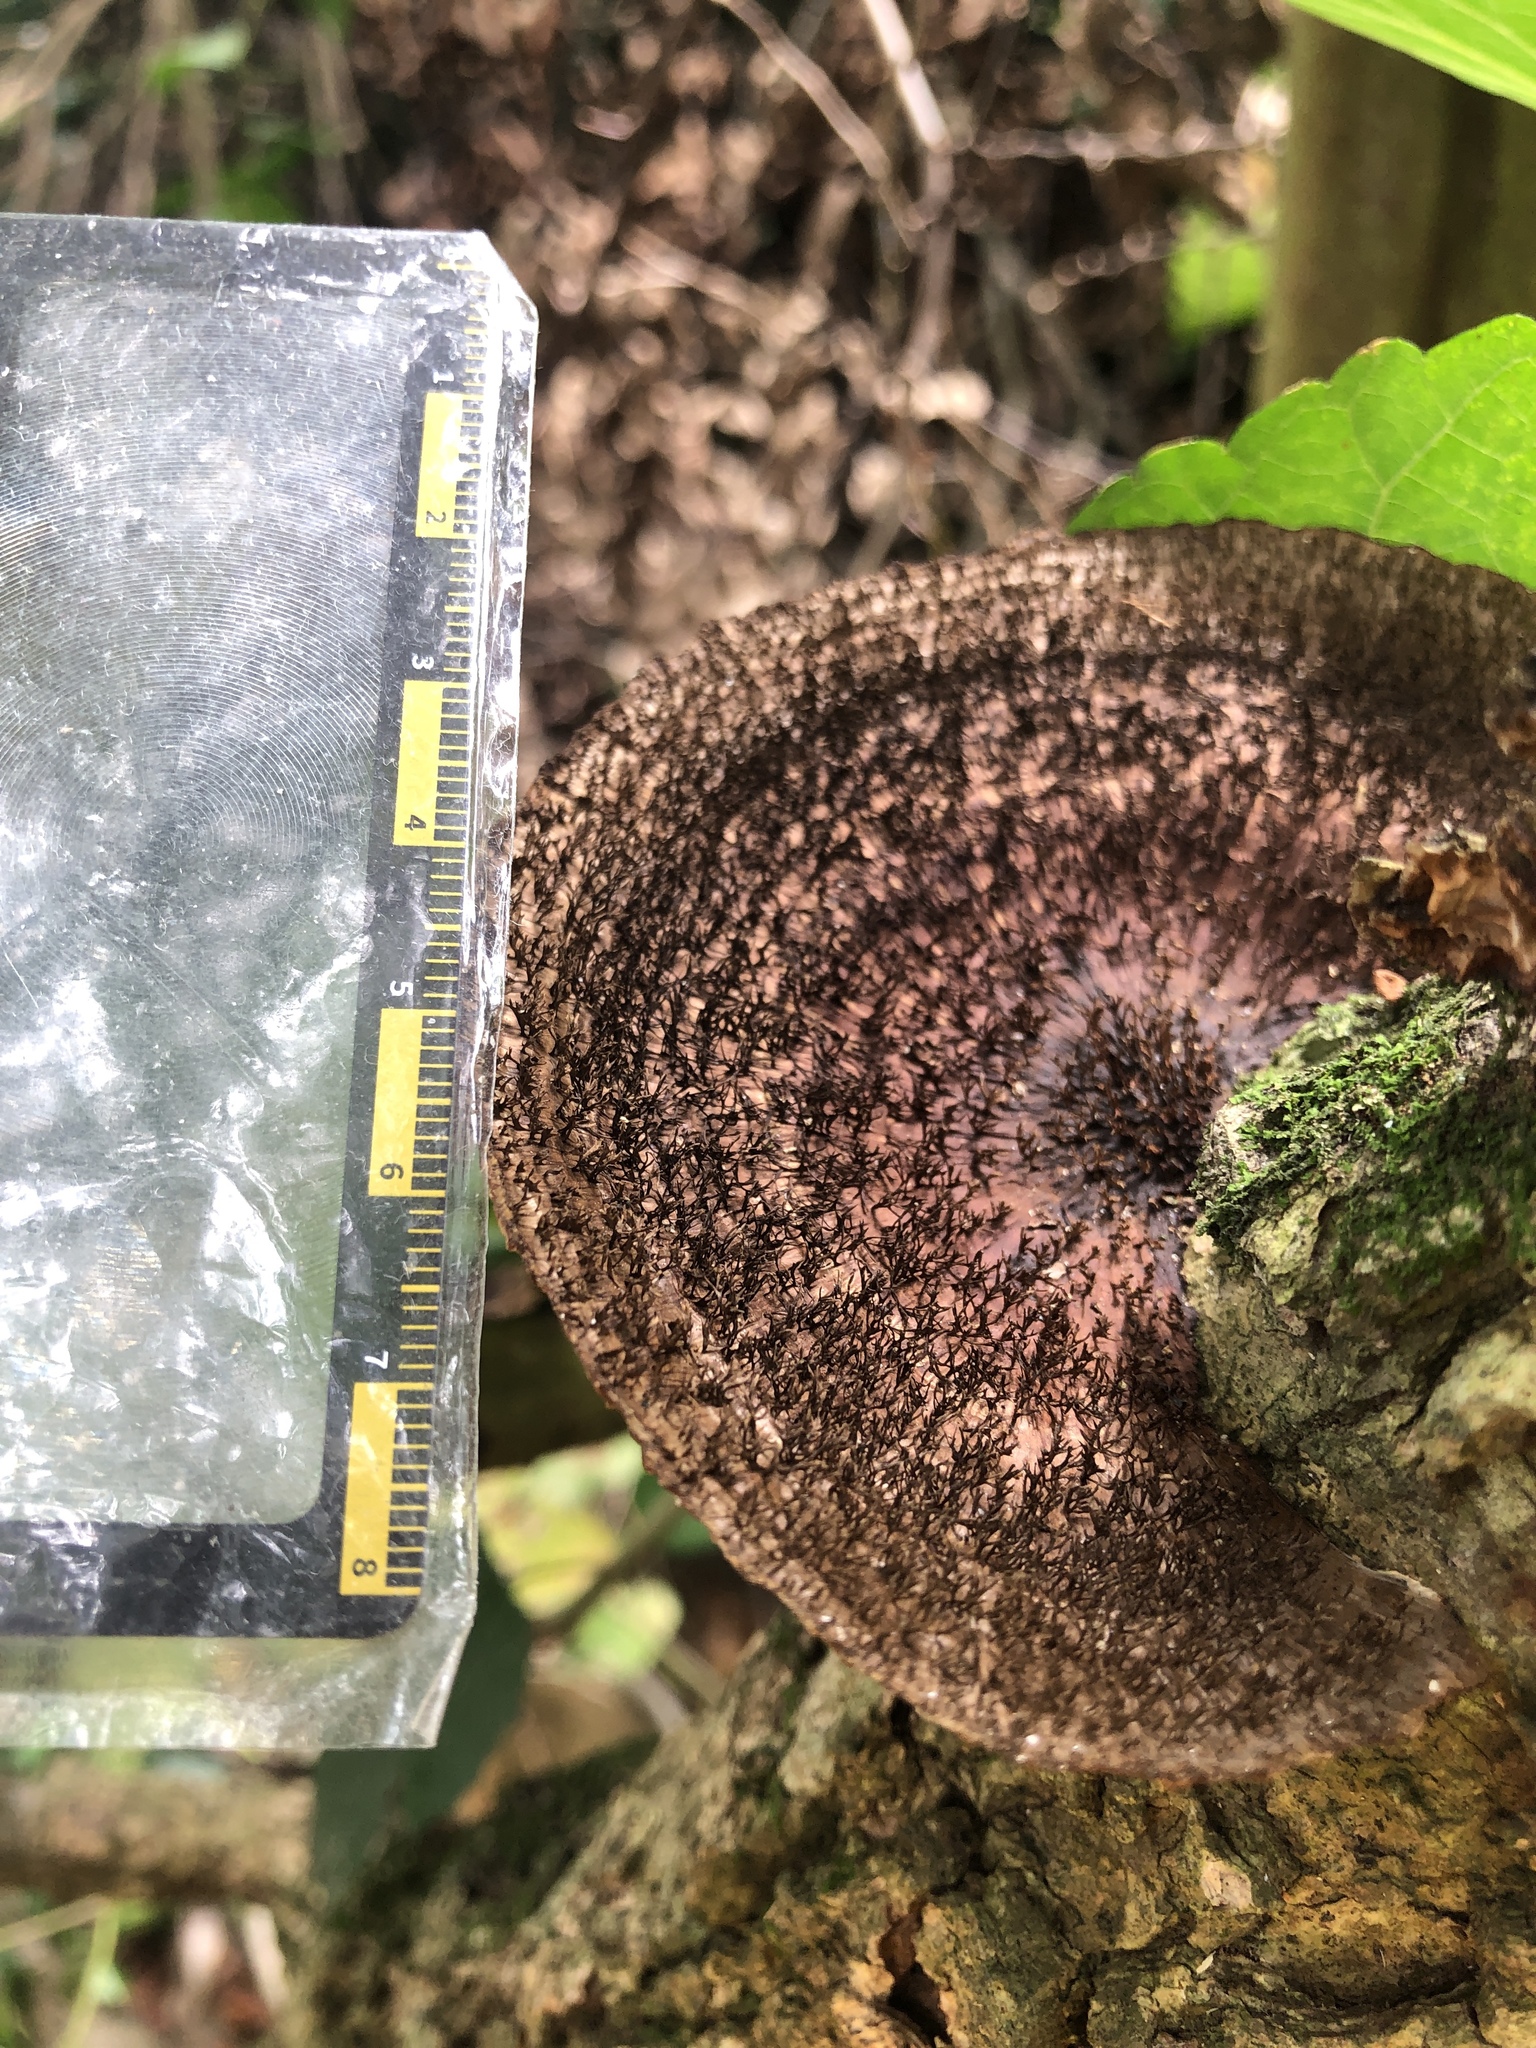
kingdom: Fungi
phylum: Basidiomycota
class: Agaricomycetes
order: Polyporales
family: Polyporaceae
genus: Hexagonia
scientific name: Hexagonia apiaria
